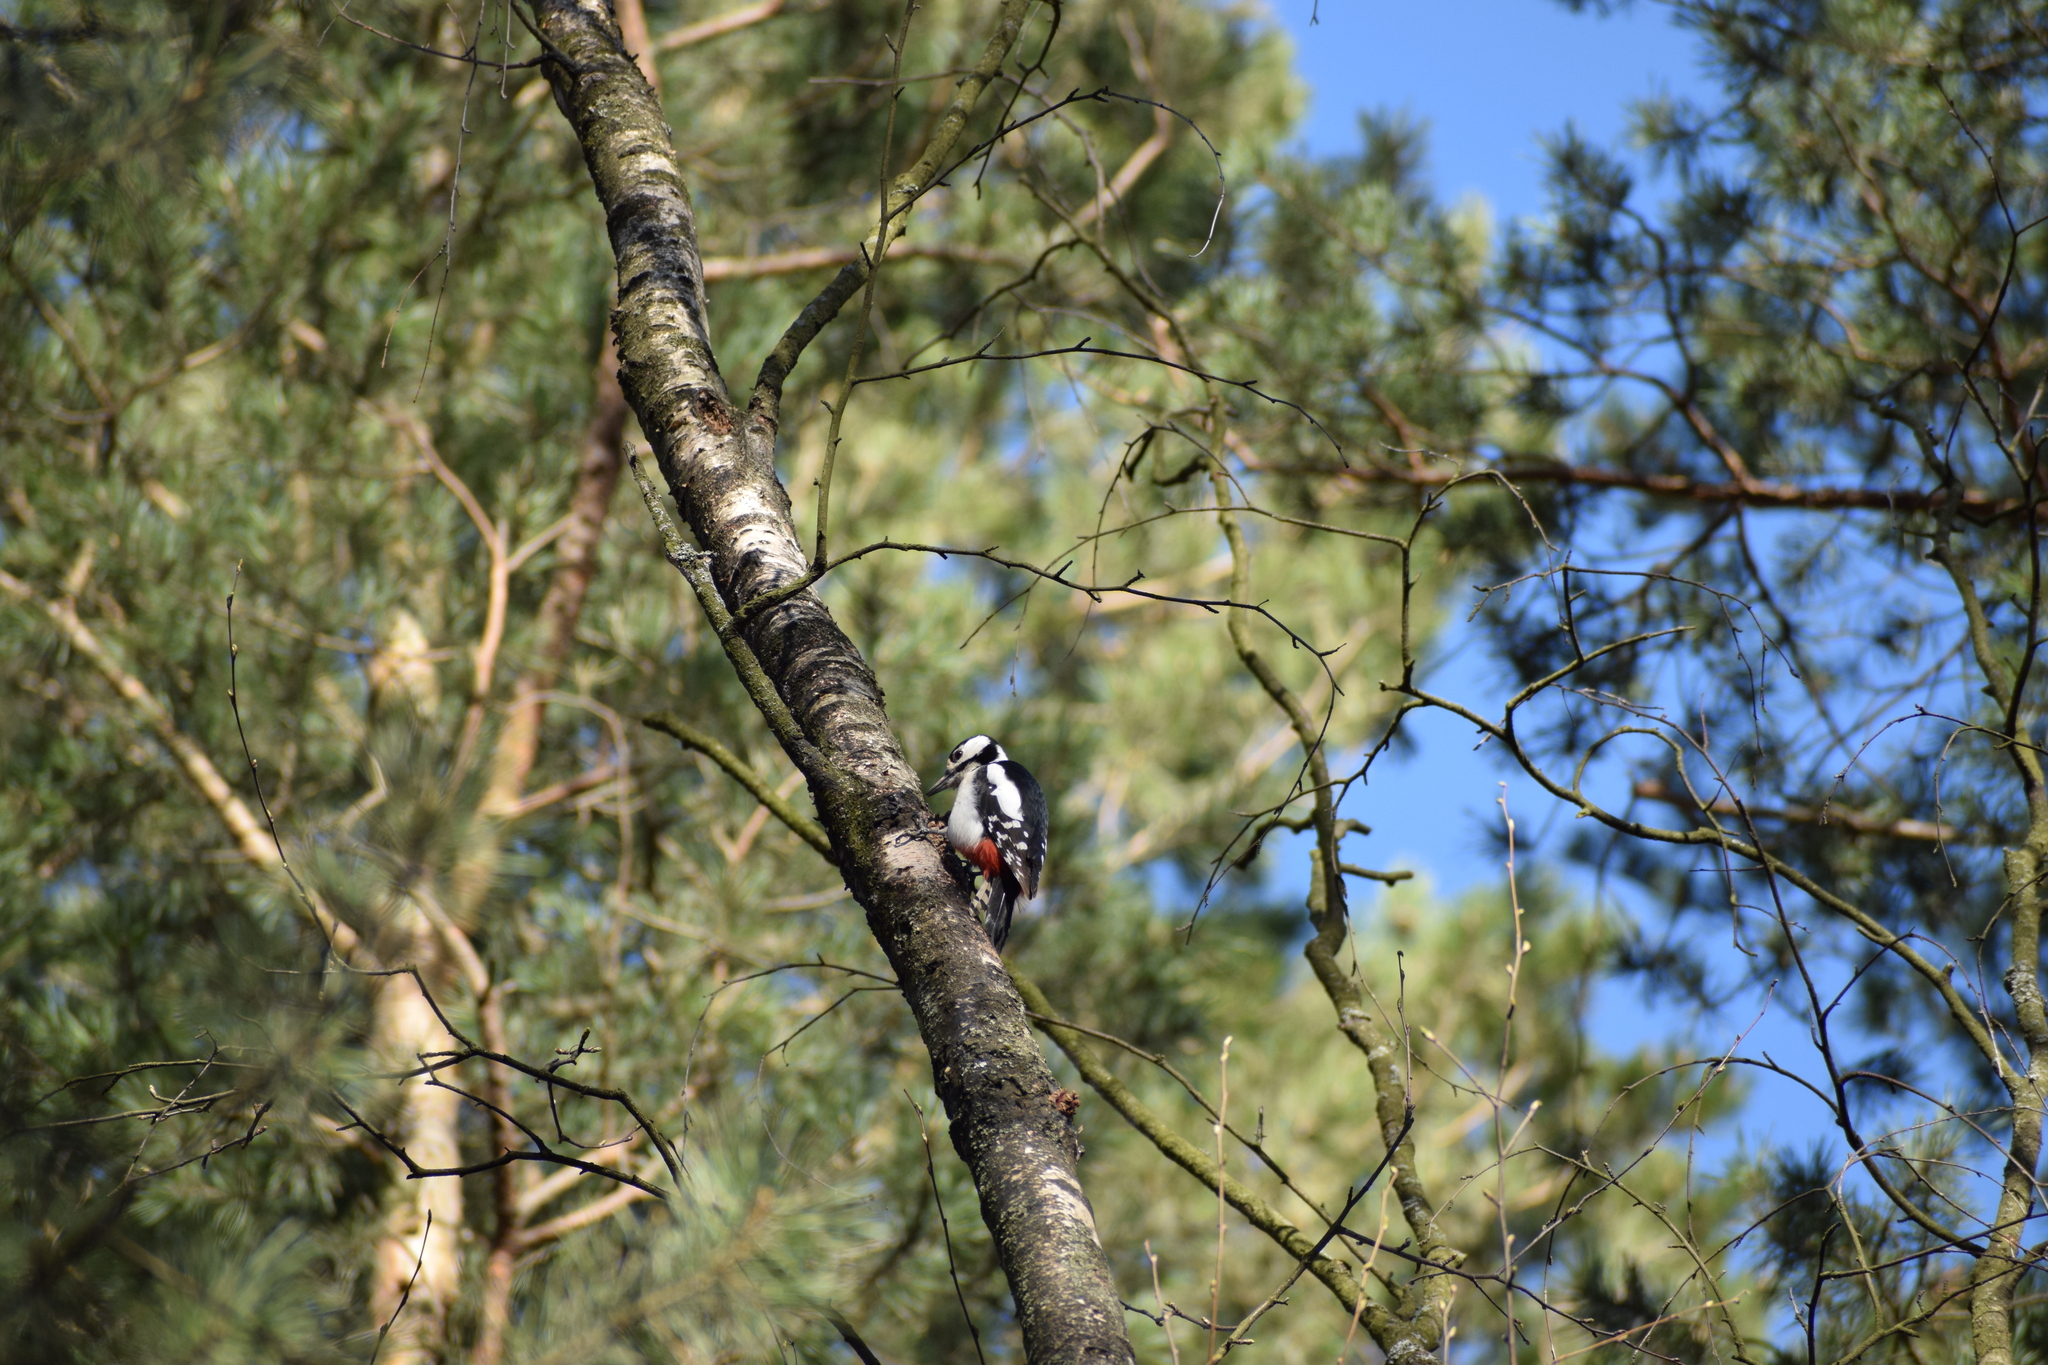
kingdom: Animalia
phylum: Chordata
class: Aves
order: Piciformes
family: Picidae
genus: Dendrocopos
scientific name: Dendrocopos major
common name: Great spotted woodpecker
